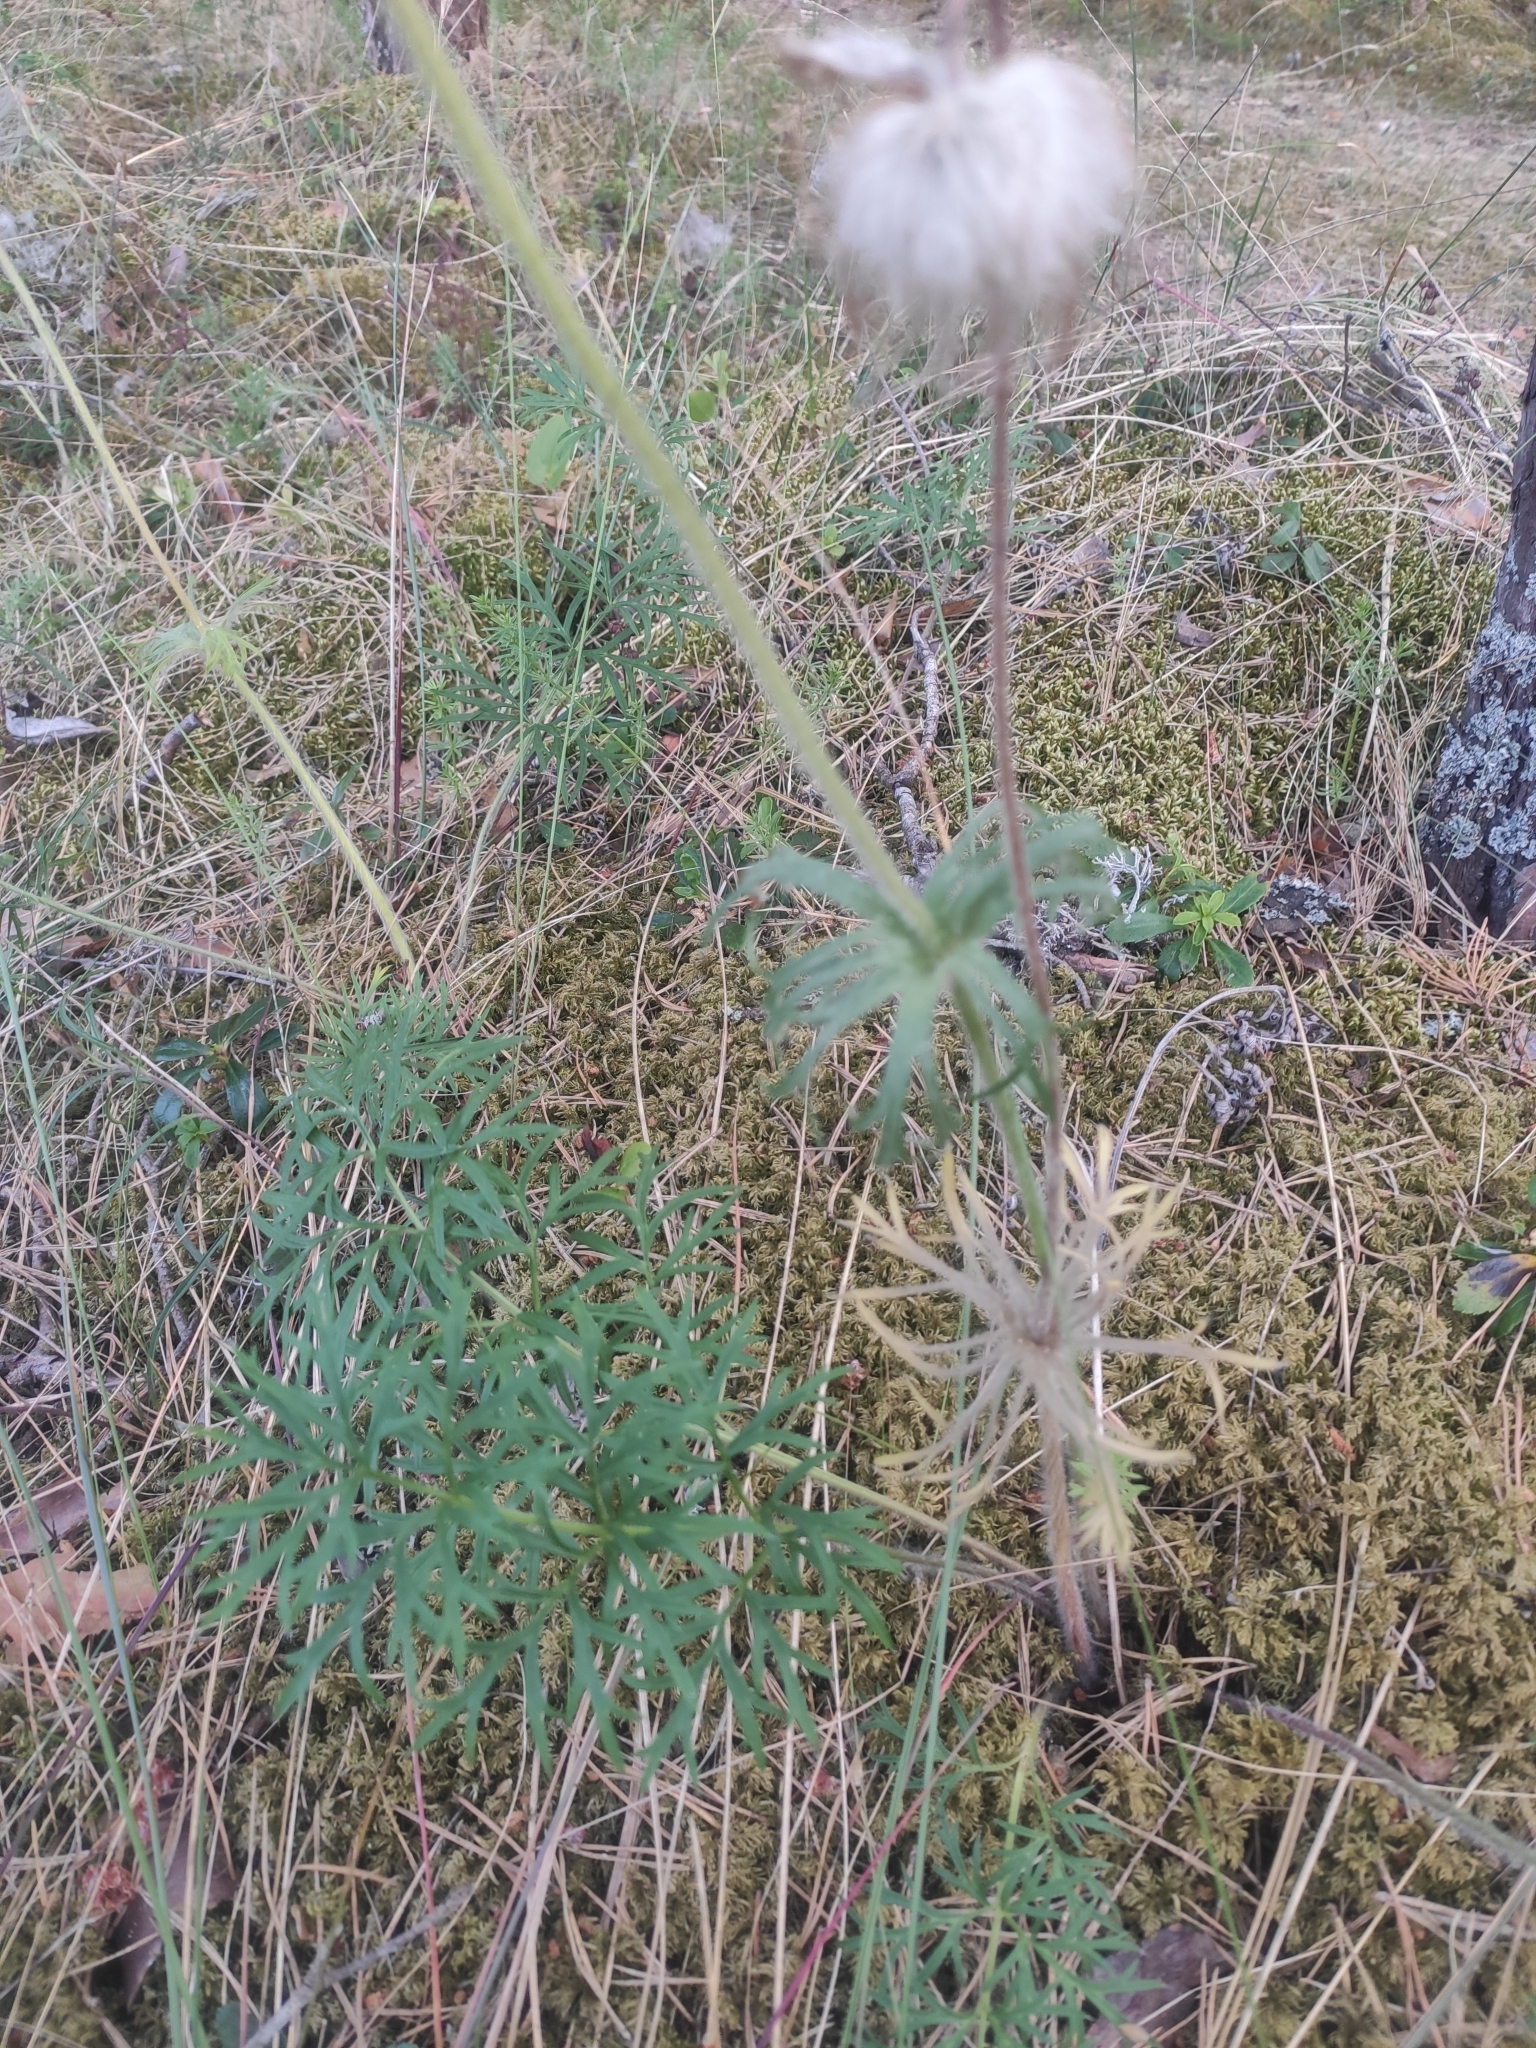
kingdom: Plantae
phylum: Tracheophyta
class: Magnoliopsida
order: Ranunculales
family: Ranunculaceae
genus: Pulsatilla
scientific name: Pulsatilla pratensis
